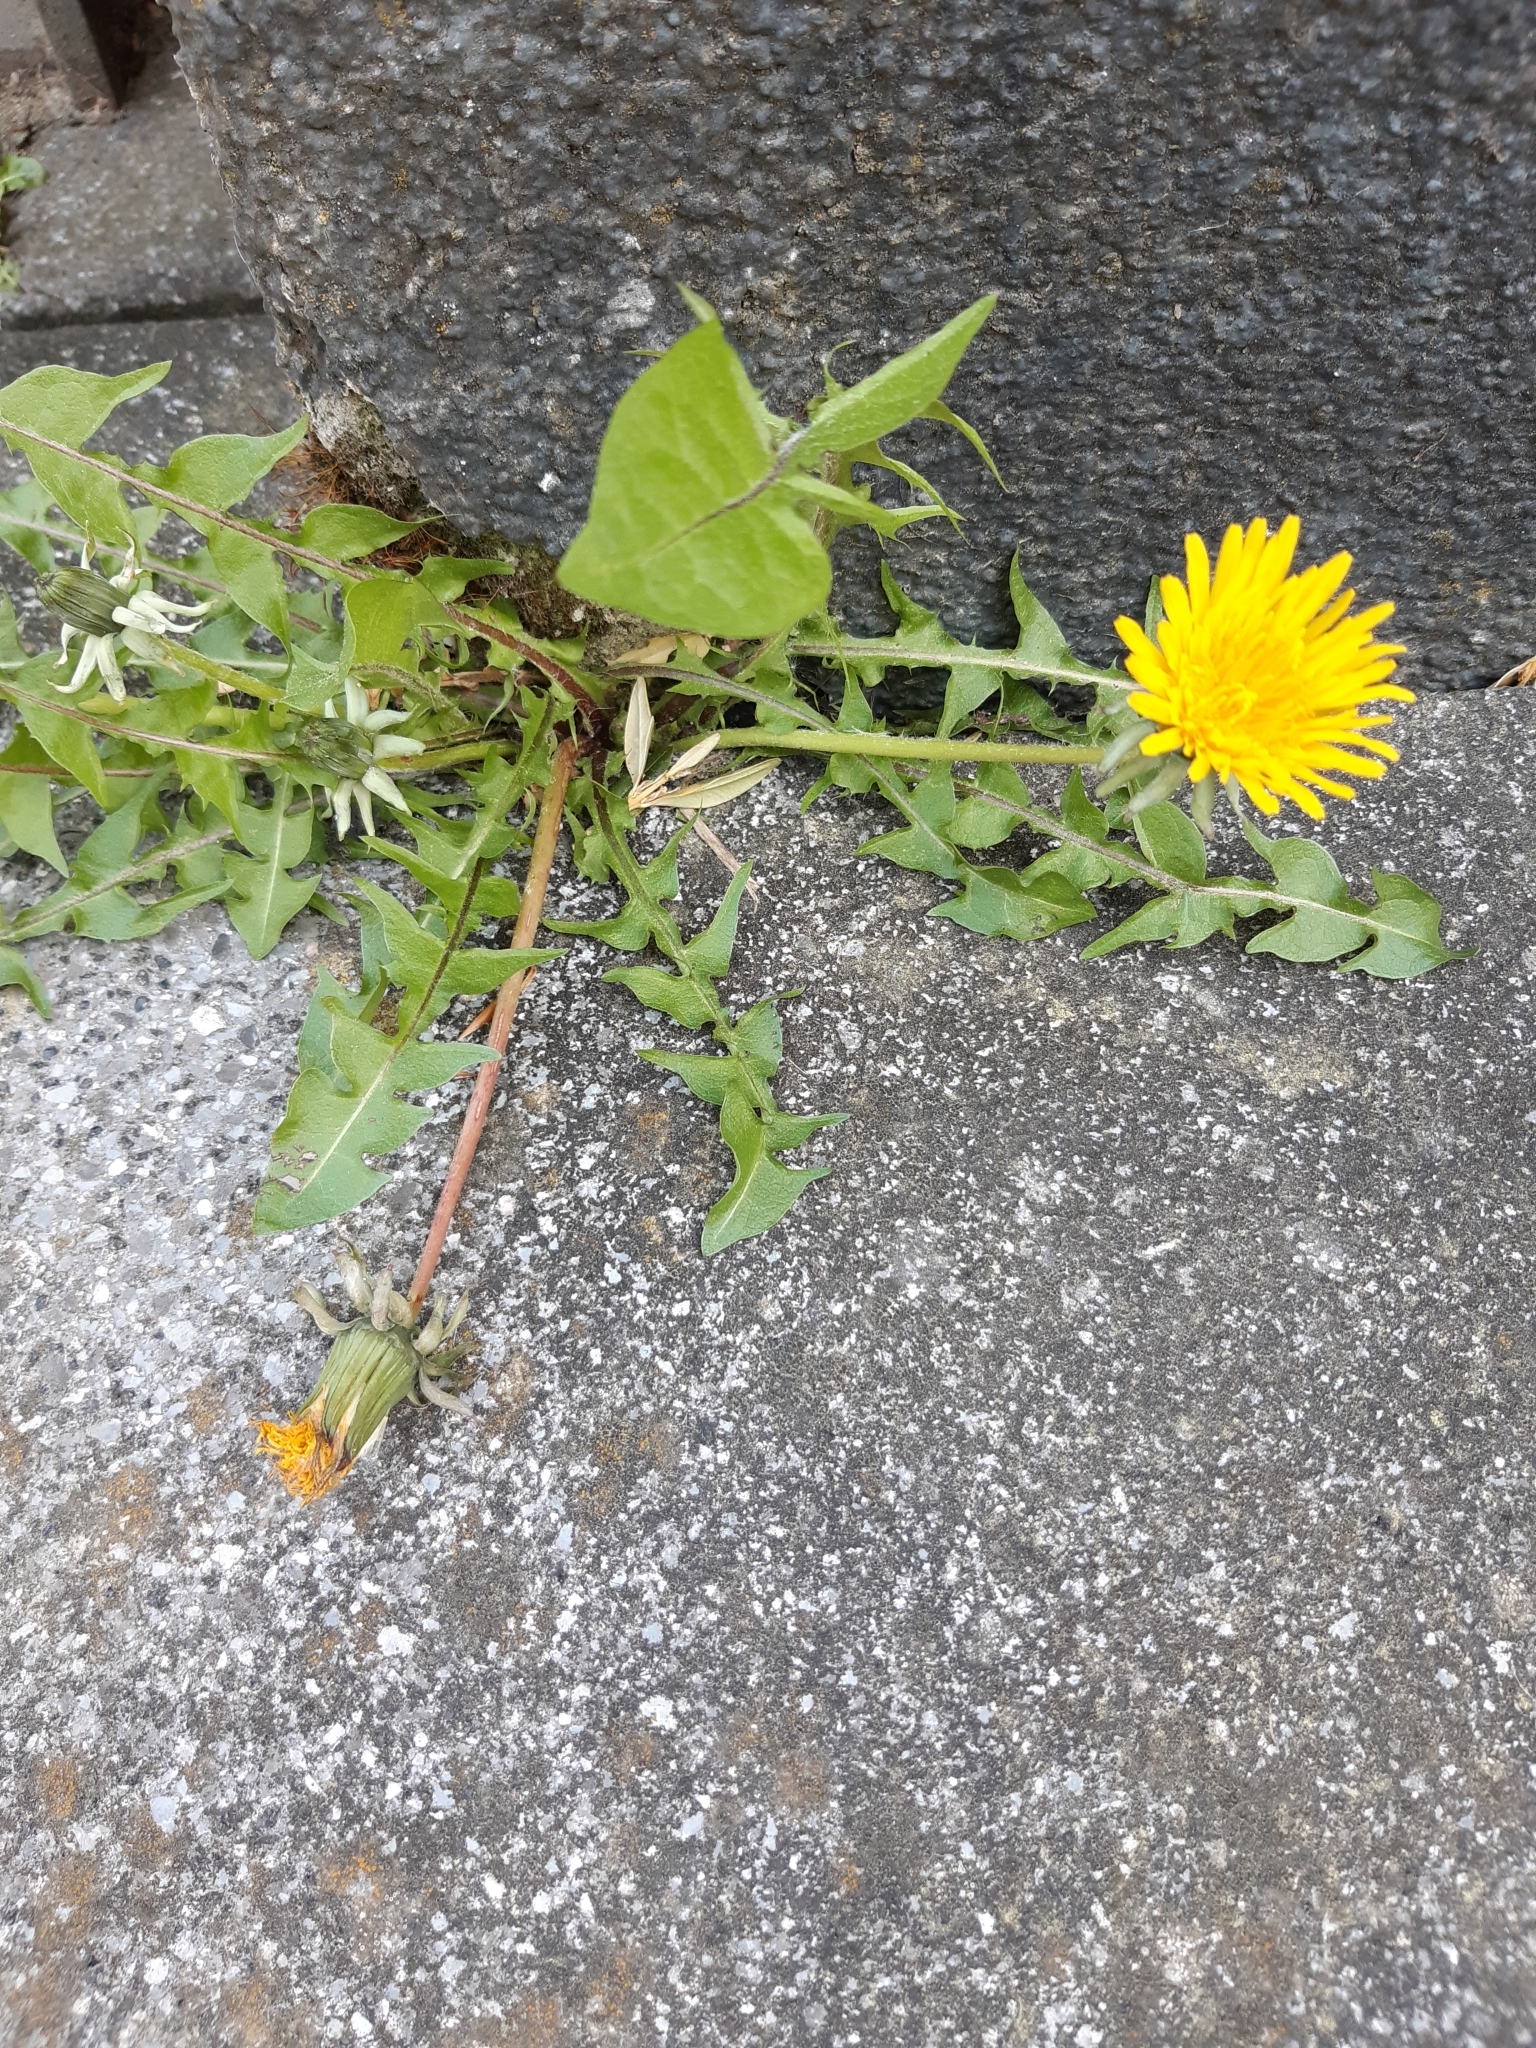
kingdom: Plantae
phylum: Tracheophyta
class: Magnoliopsida
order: Asterales
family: Asteraceae
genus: Taraxacum
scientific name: Taraxacum officinale
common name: Common dandelion
